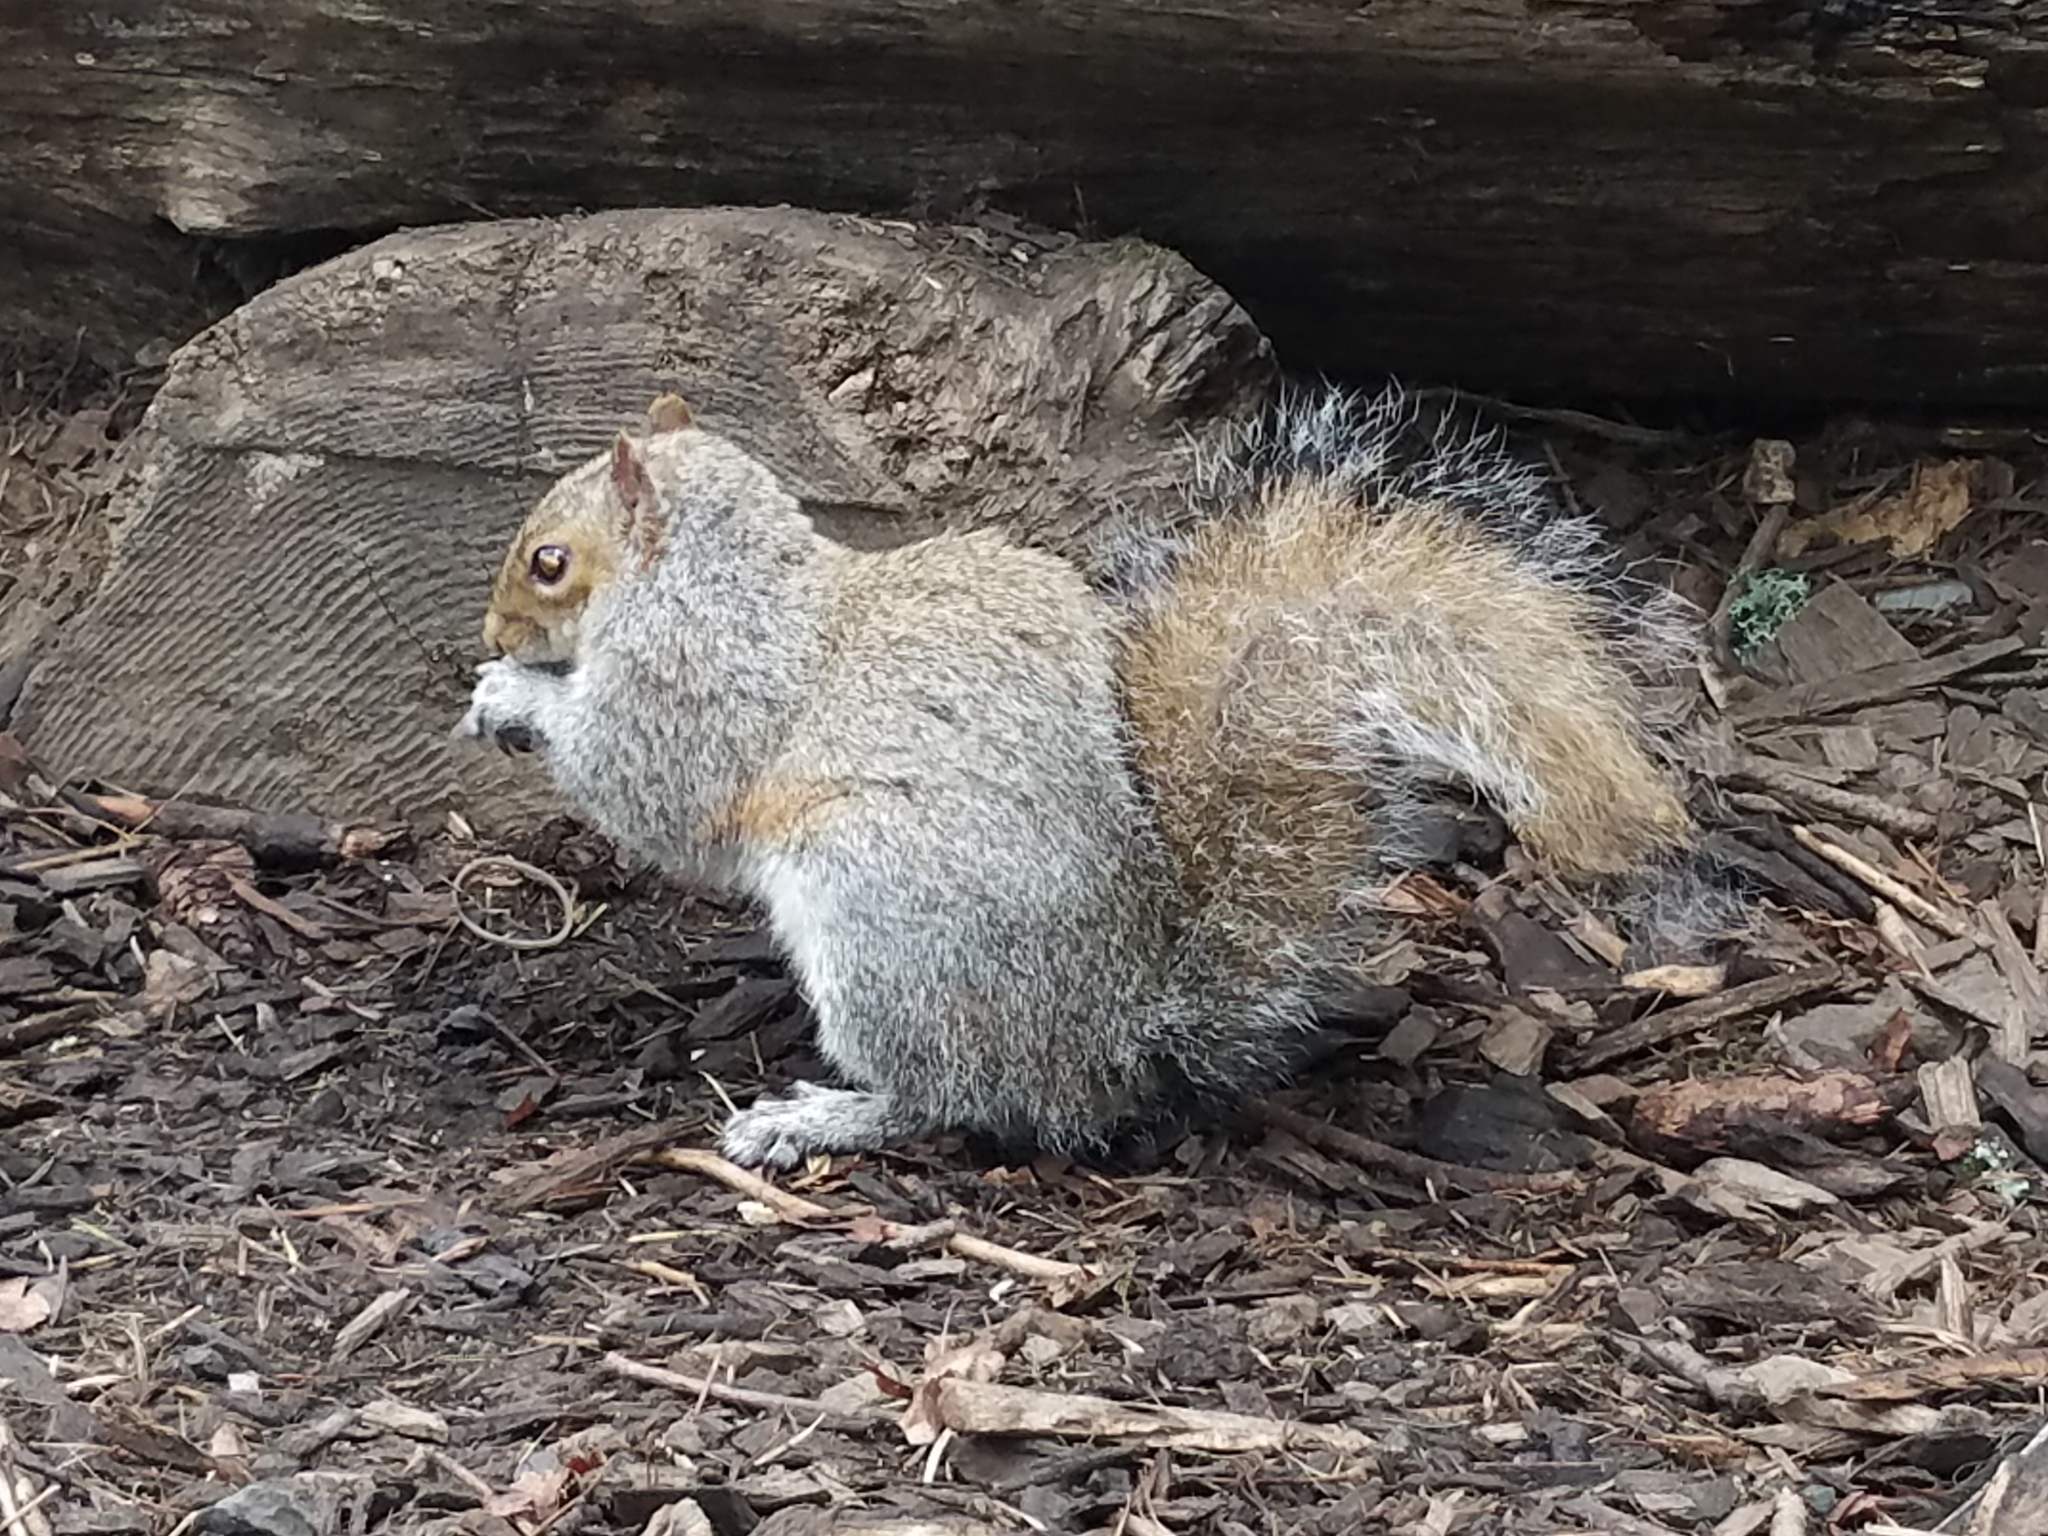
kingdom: Animalia
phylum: Chordata
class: Mammalia
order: Rodentia
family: Sciuridae
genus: Sciurus
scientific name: Sciurus carolinensis
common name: Eastern gray squirrel
